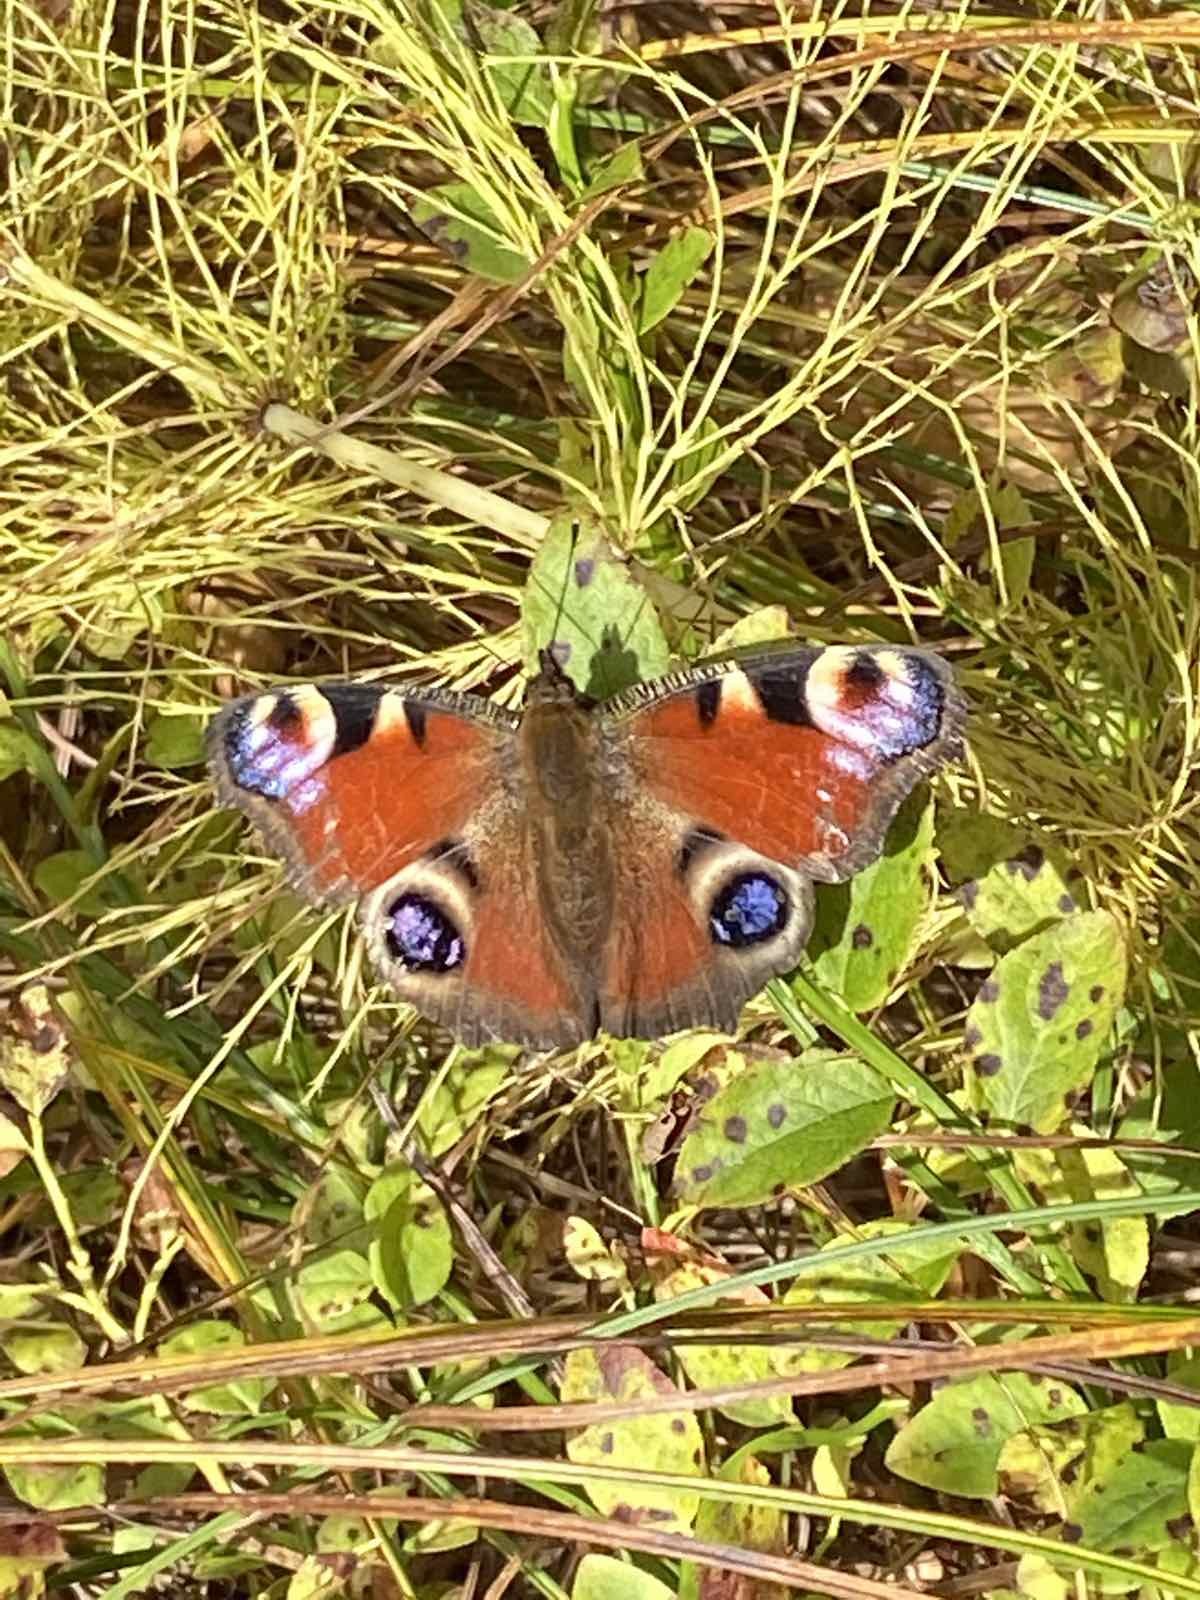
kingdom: Animalia
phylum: Arthropoda
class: Insecta
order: Lepidoptera
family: Nymphalidae
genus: Aglais
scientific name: Aglais io
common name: Peacock
